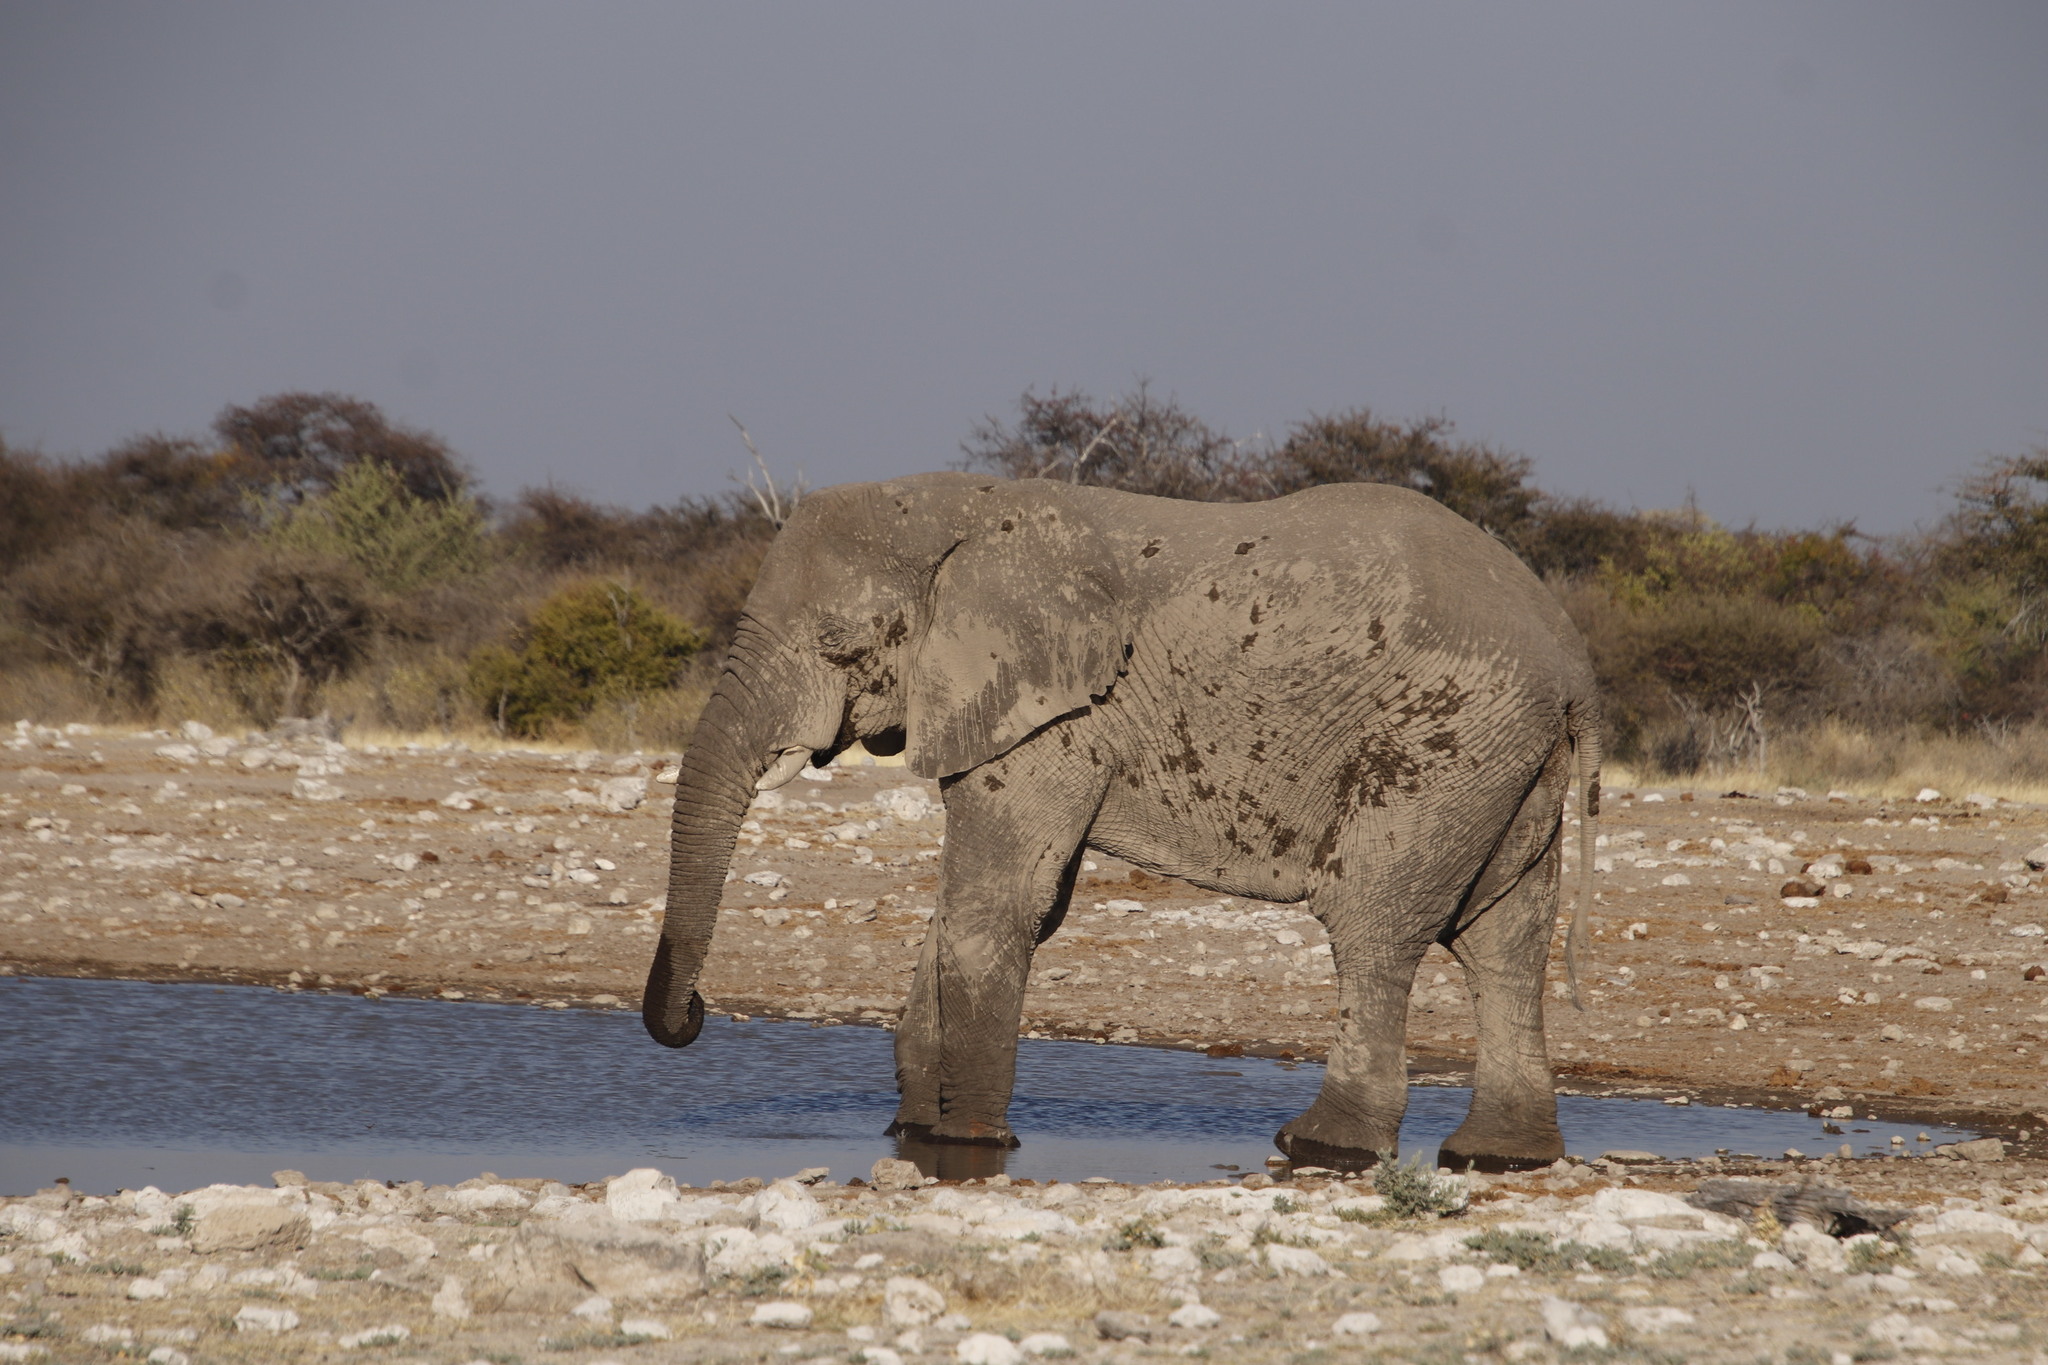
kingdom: Animalia
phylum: Chordata
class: Mammalia
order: Proboscidea
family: Elephantidae
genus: Loxodonta
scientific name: Loxodonta africana
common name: African elephant
